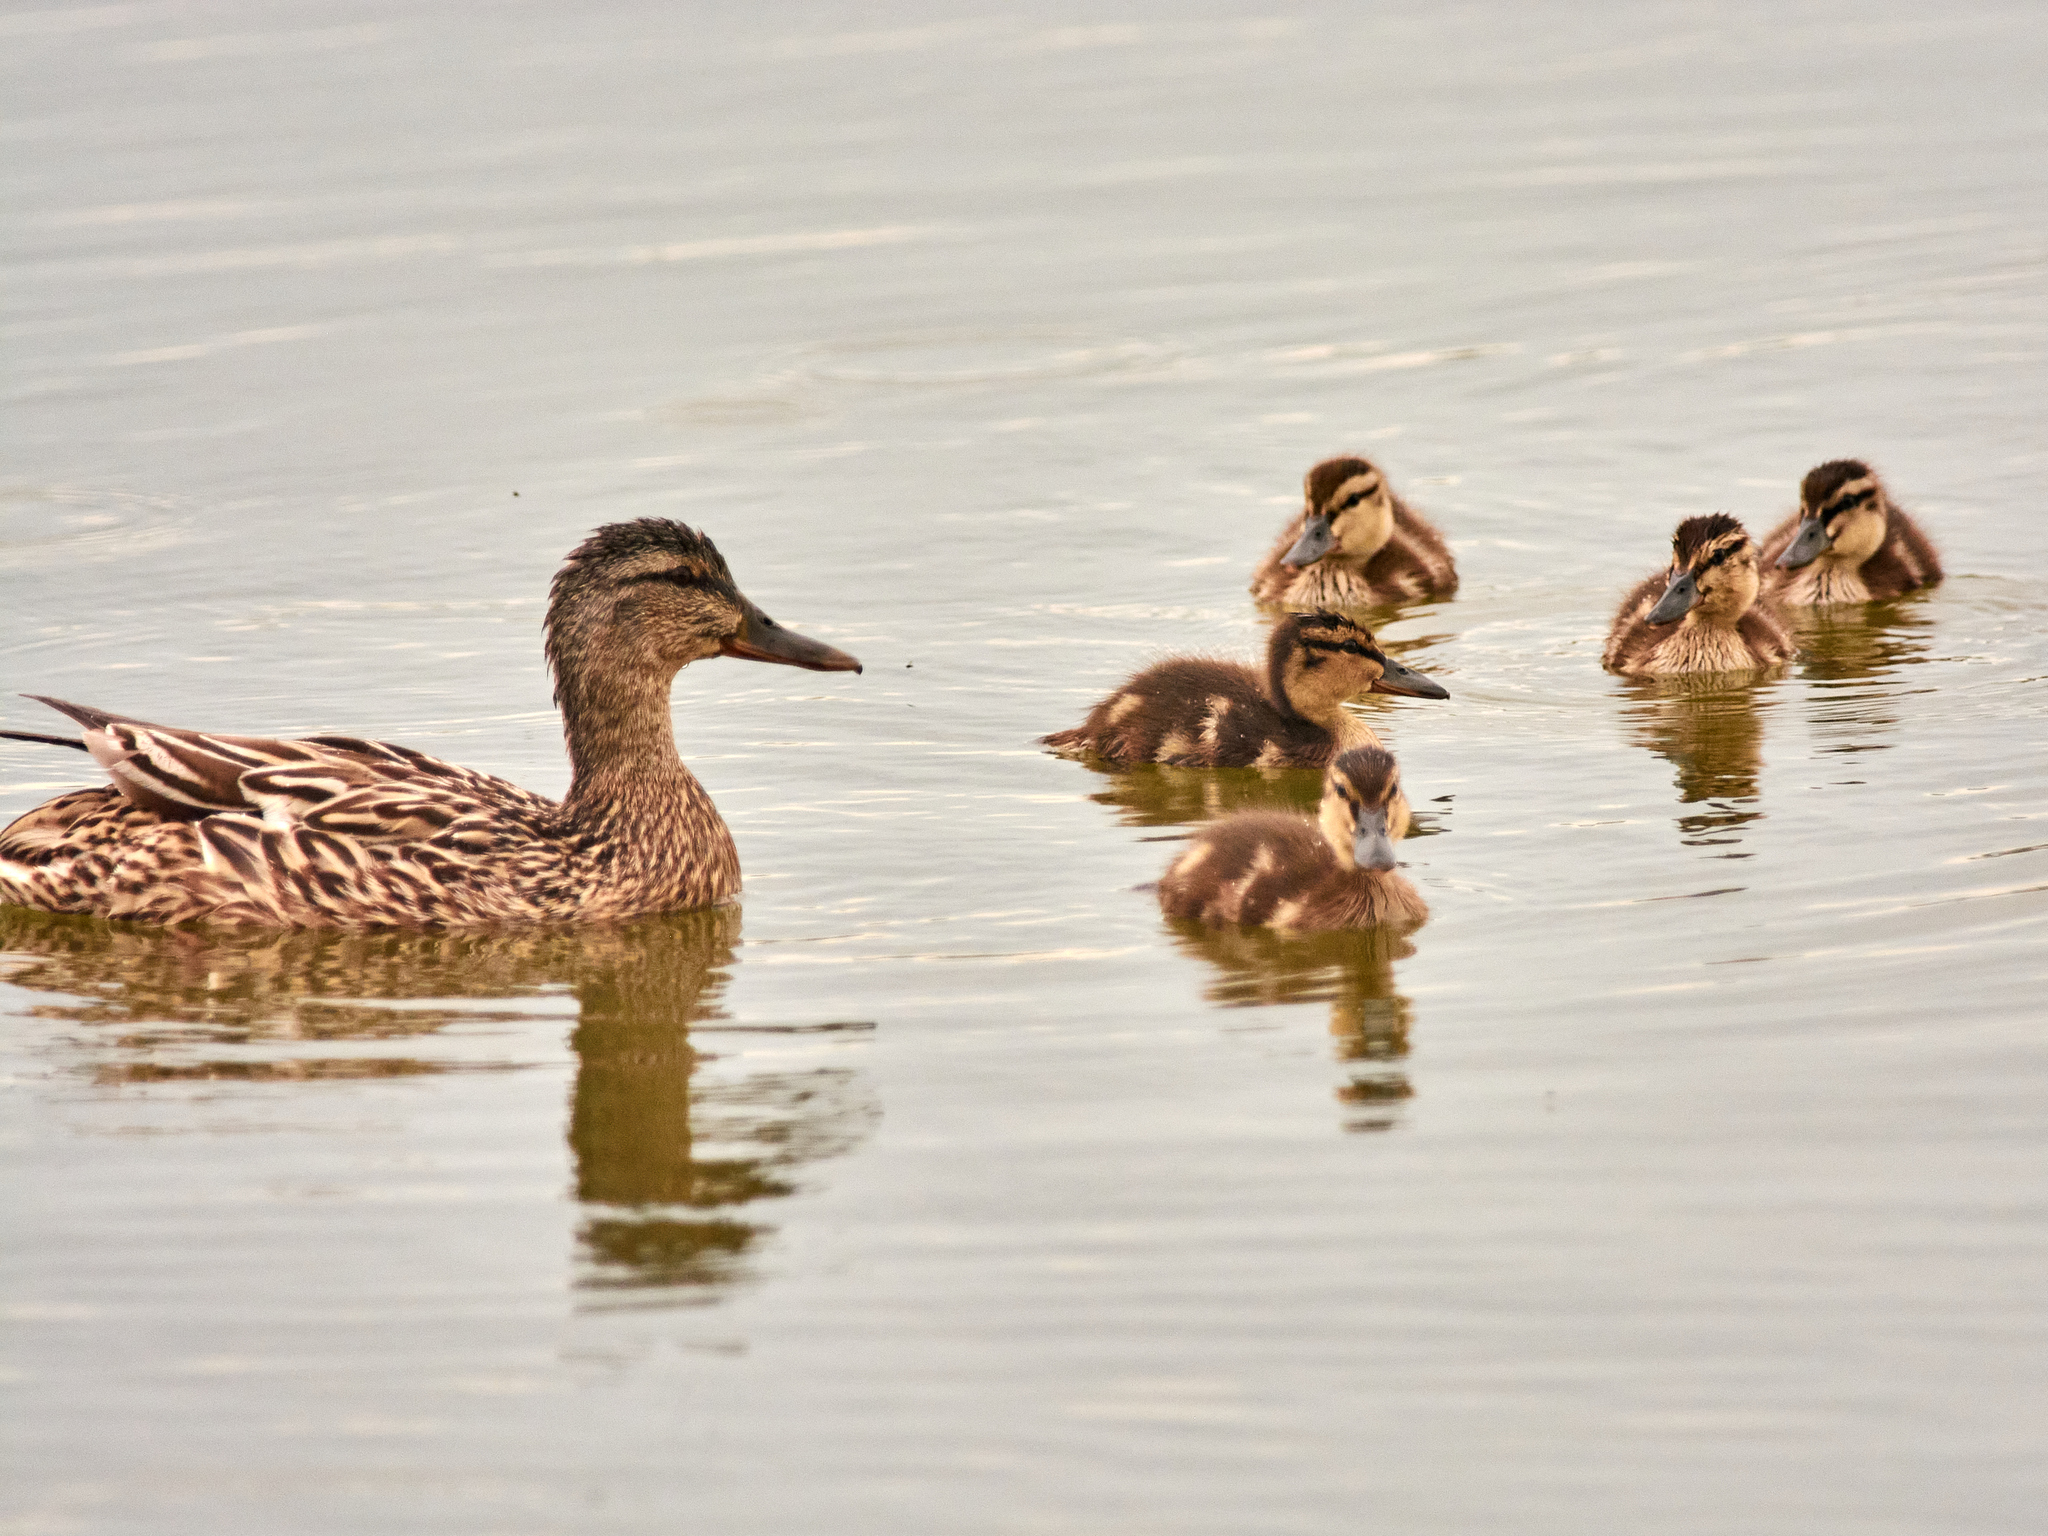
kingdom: Animalia
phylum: Chordata
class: Aves
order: Anseriformes
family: Anatidae
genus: Anas
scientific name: Anas platyrhynchos
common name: Mallard
